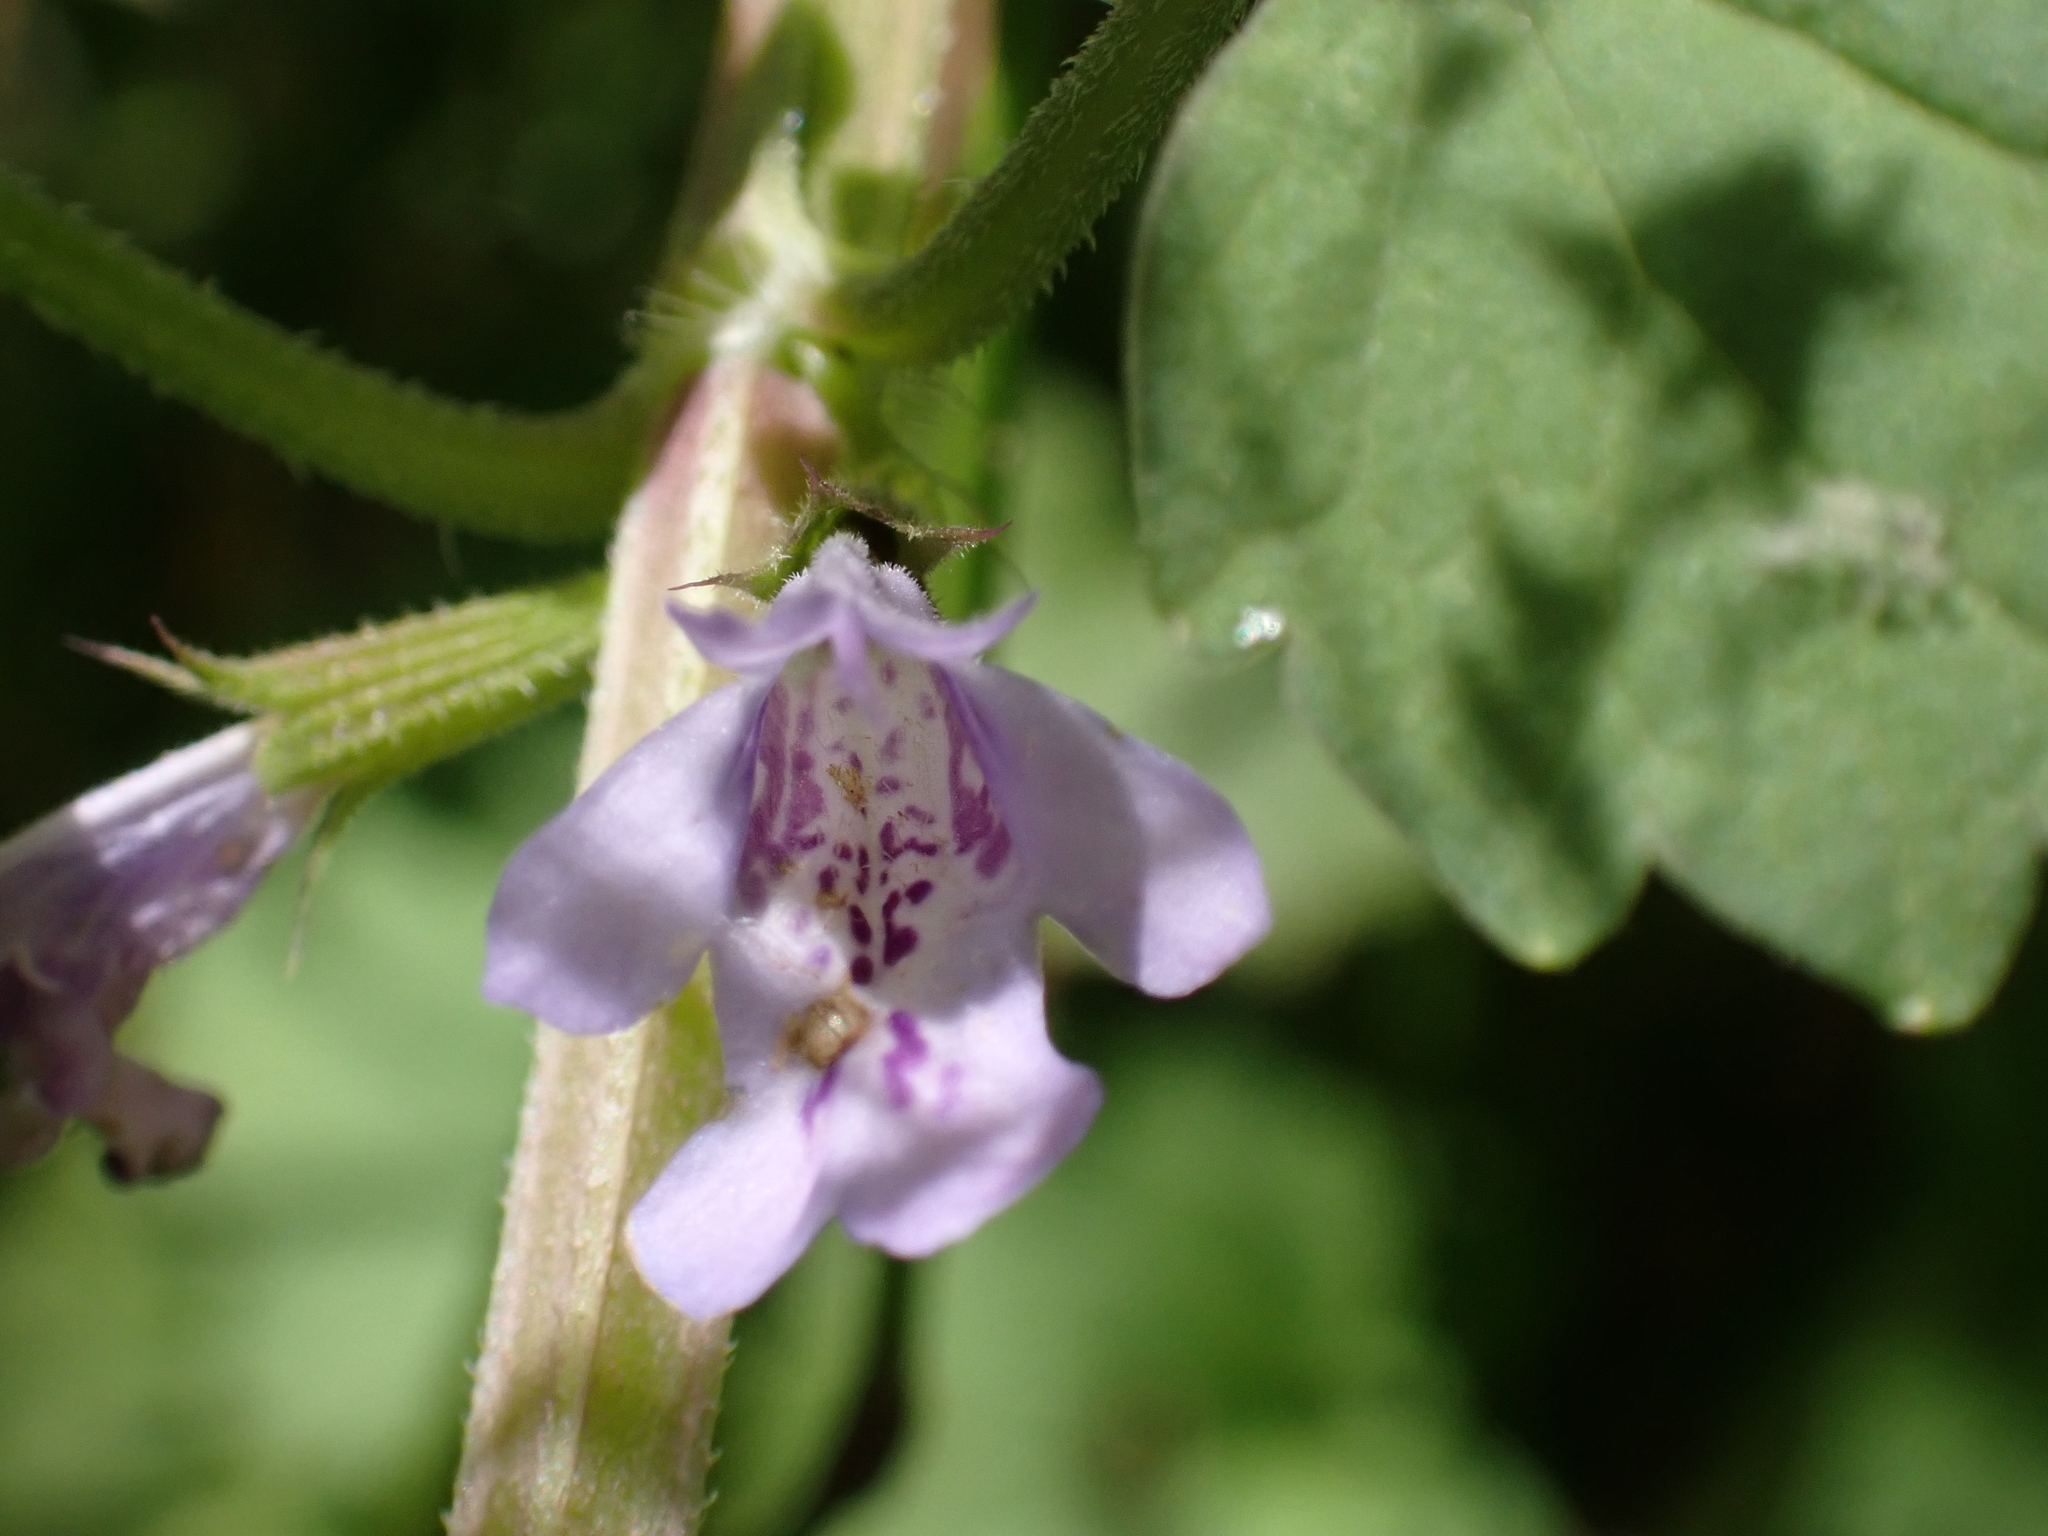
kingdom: Plantae
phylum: Tracheophyta
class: Magnoliopsida
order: Lamiales
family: Lamiaceae
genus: Glechoma
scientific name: Glechoma hederacea
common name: Ground ivy
